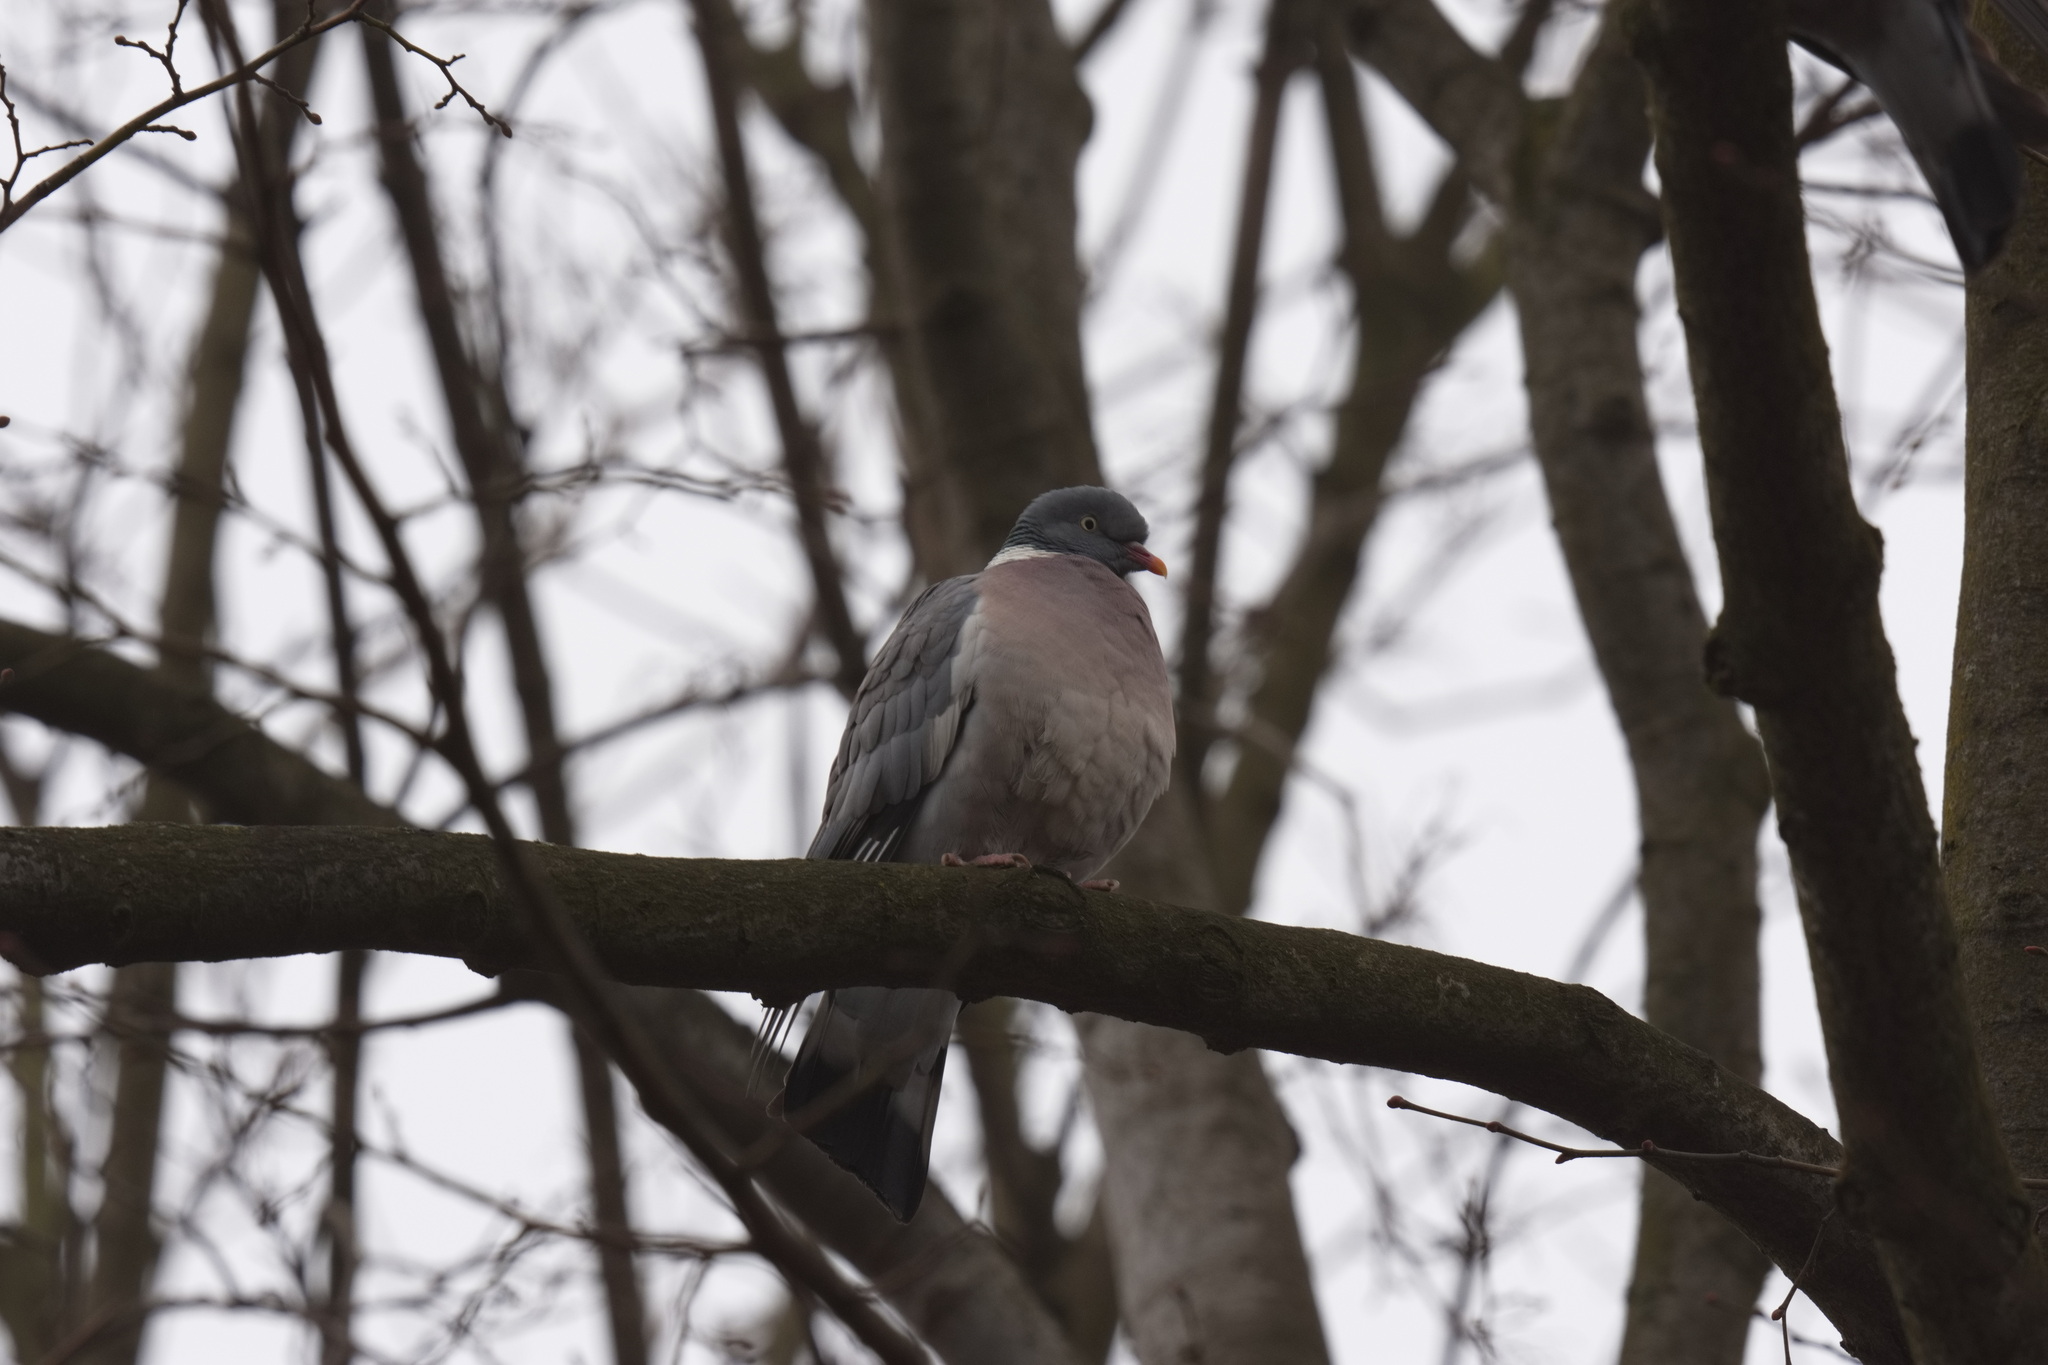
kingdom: Animalia
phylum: Chordata
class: Aves
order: Columbiformes
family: Columbidae
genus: Columba
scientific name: Columba palumbus
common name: Common wood pigeon
